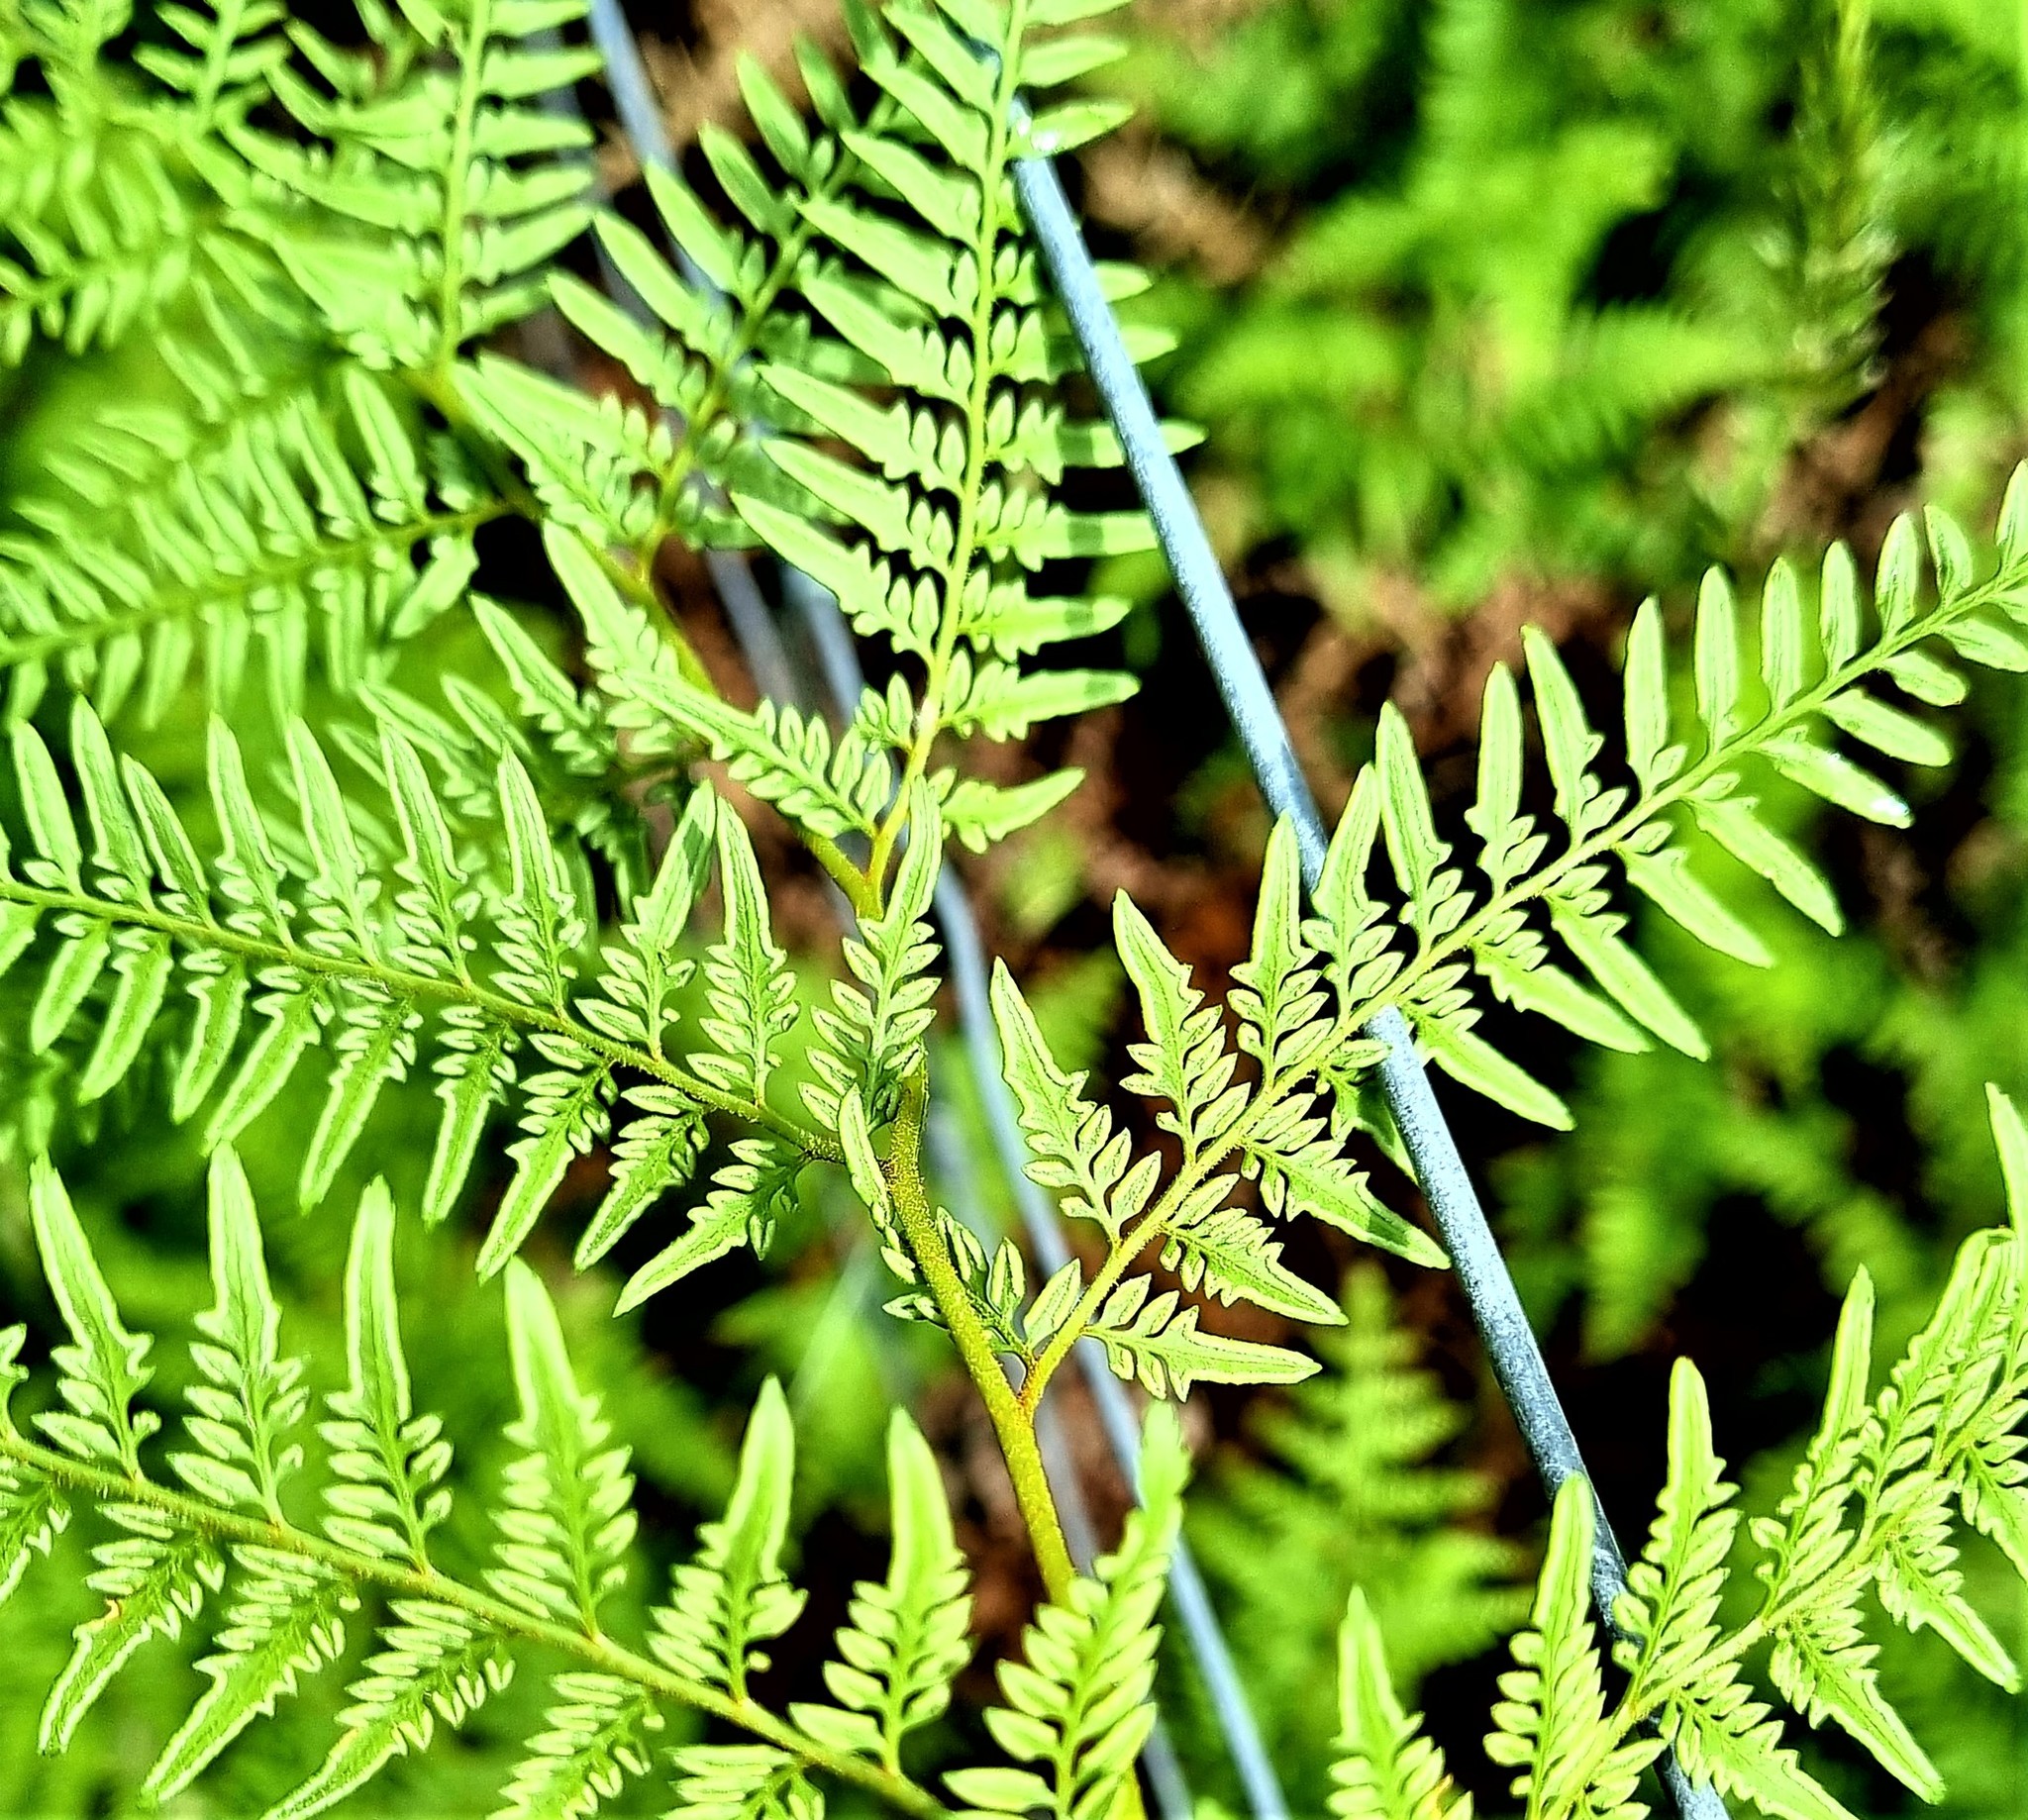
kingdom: Plantae
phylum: Tracheophyta
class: Polypodiopsida
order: Polypodiales
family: Dennstaedtiaceae
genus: Paesia
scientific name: Paesia scaberula
